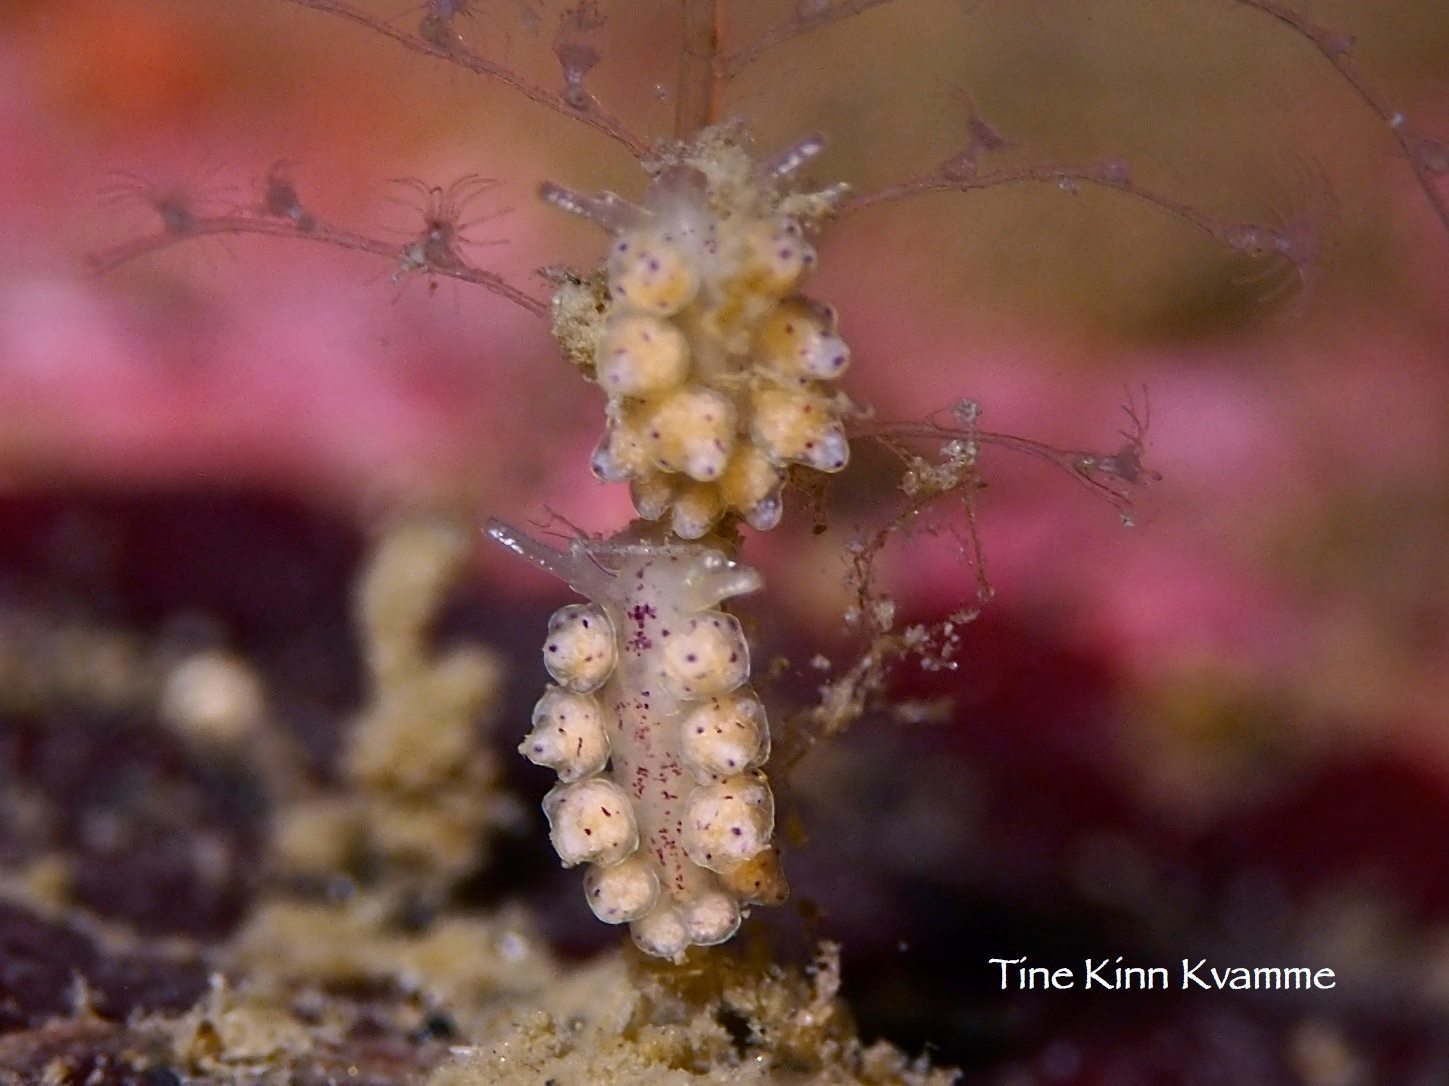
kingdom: Animalia
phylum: Mollusca
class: Gastropoda
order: Nudibranchia
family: Dotidae
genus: Doto
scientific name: Doto dunnei
